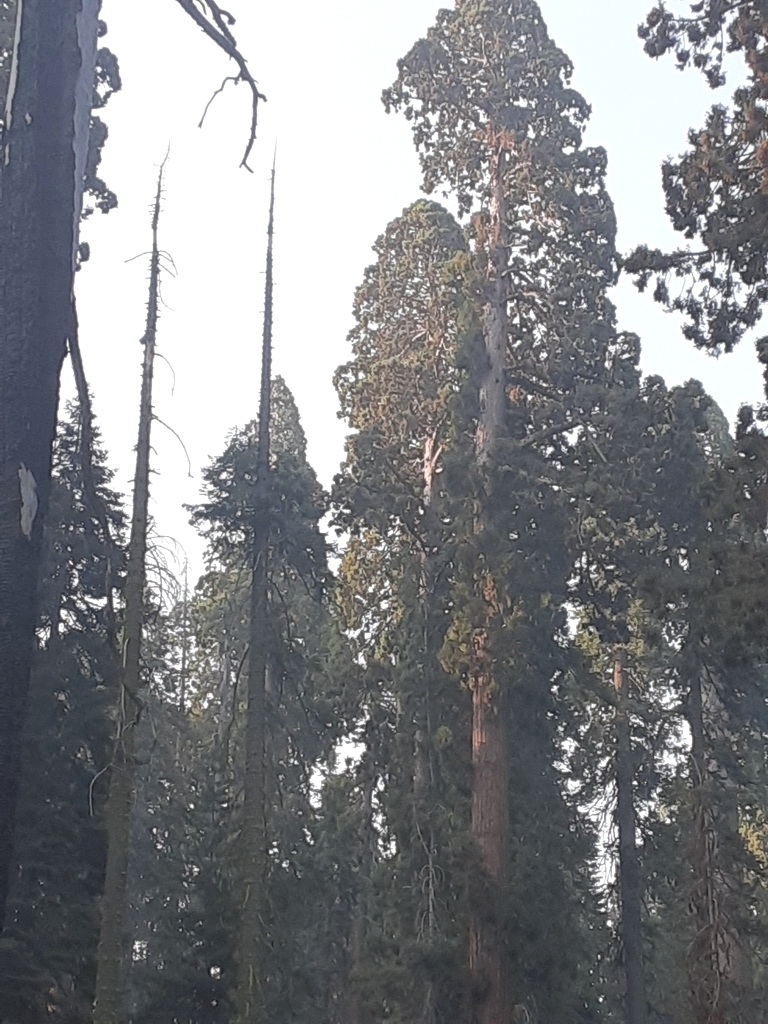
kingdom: Plantae
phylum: Tracheophyta
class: Pinopsida
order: Pinales
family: Cupressaceae
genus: Sequoiadendron
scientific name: Sequoiadendron giganteum
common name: Wellingtonia
